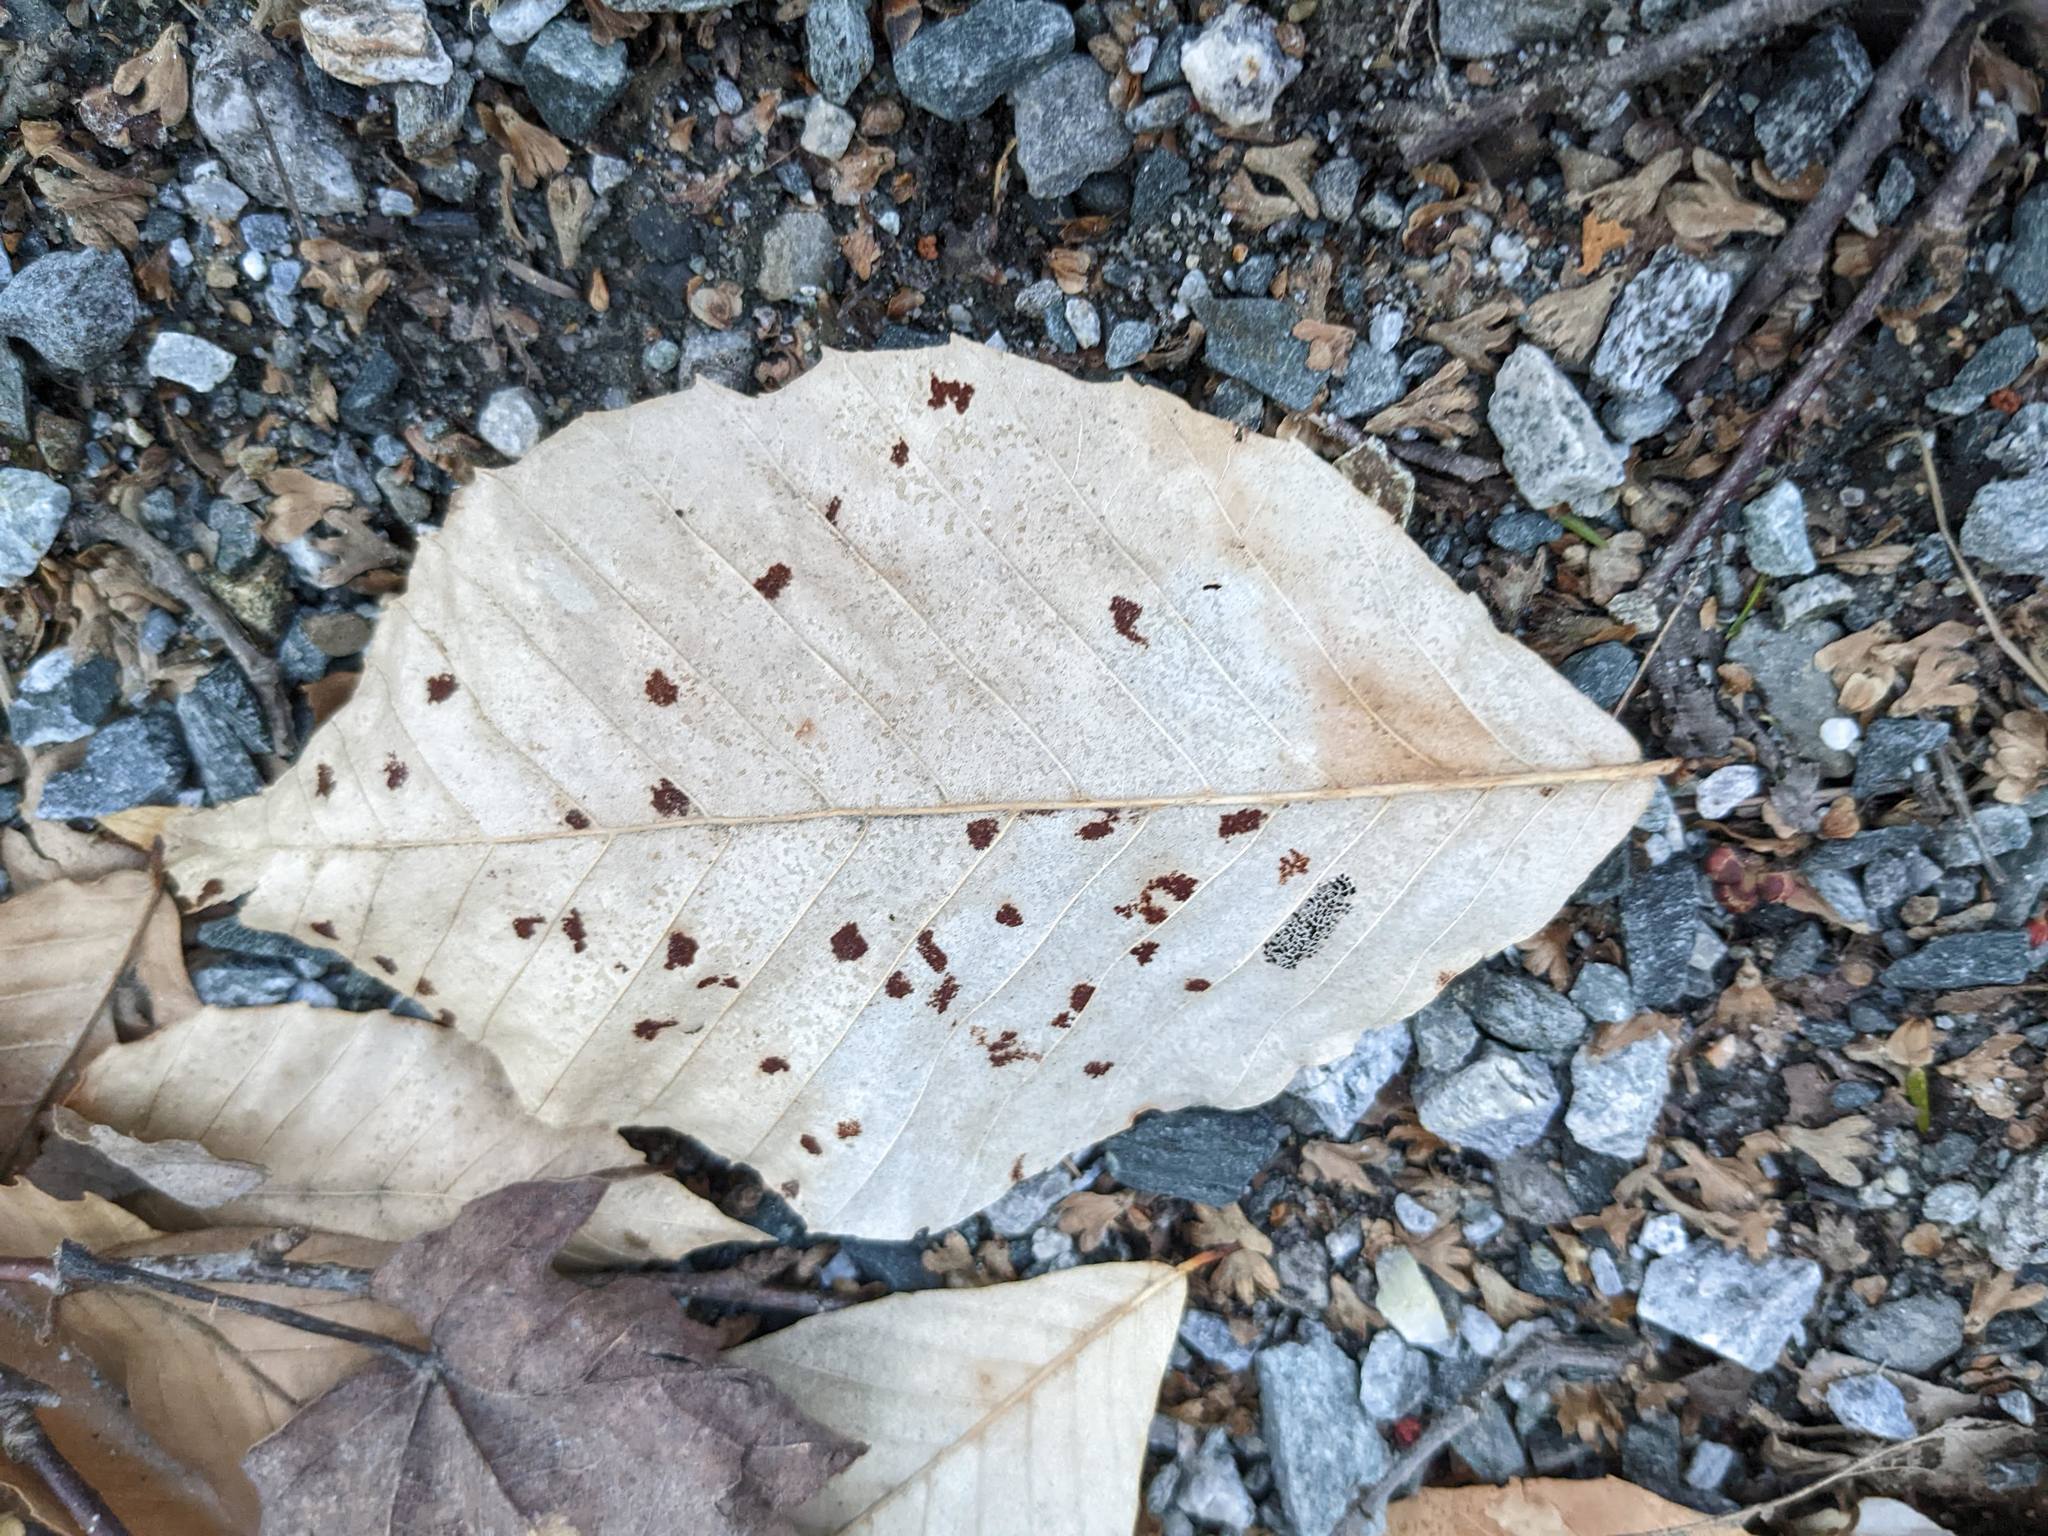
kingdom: Plantae
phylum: Tracheophyta
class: Magnoliopsida
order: Fagales
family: Fagaceae
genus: Fagus
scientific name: Fagus grandifolia
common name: American beech
